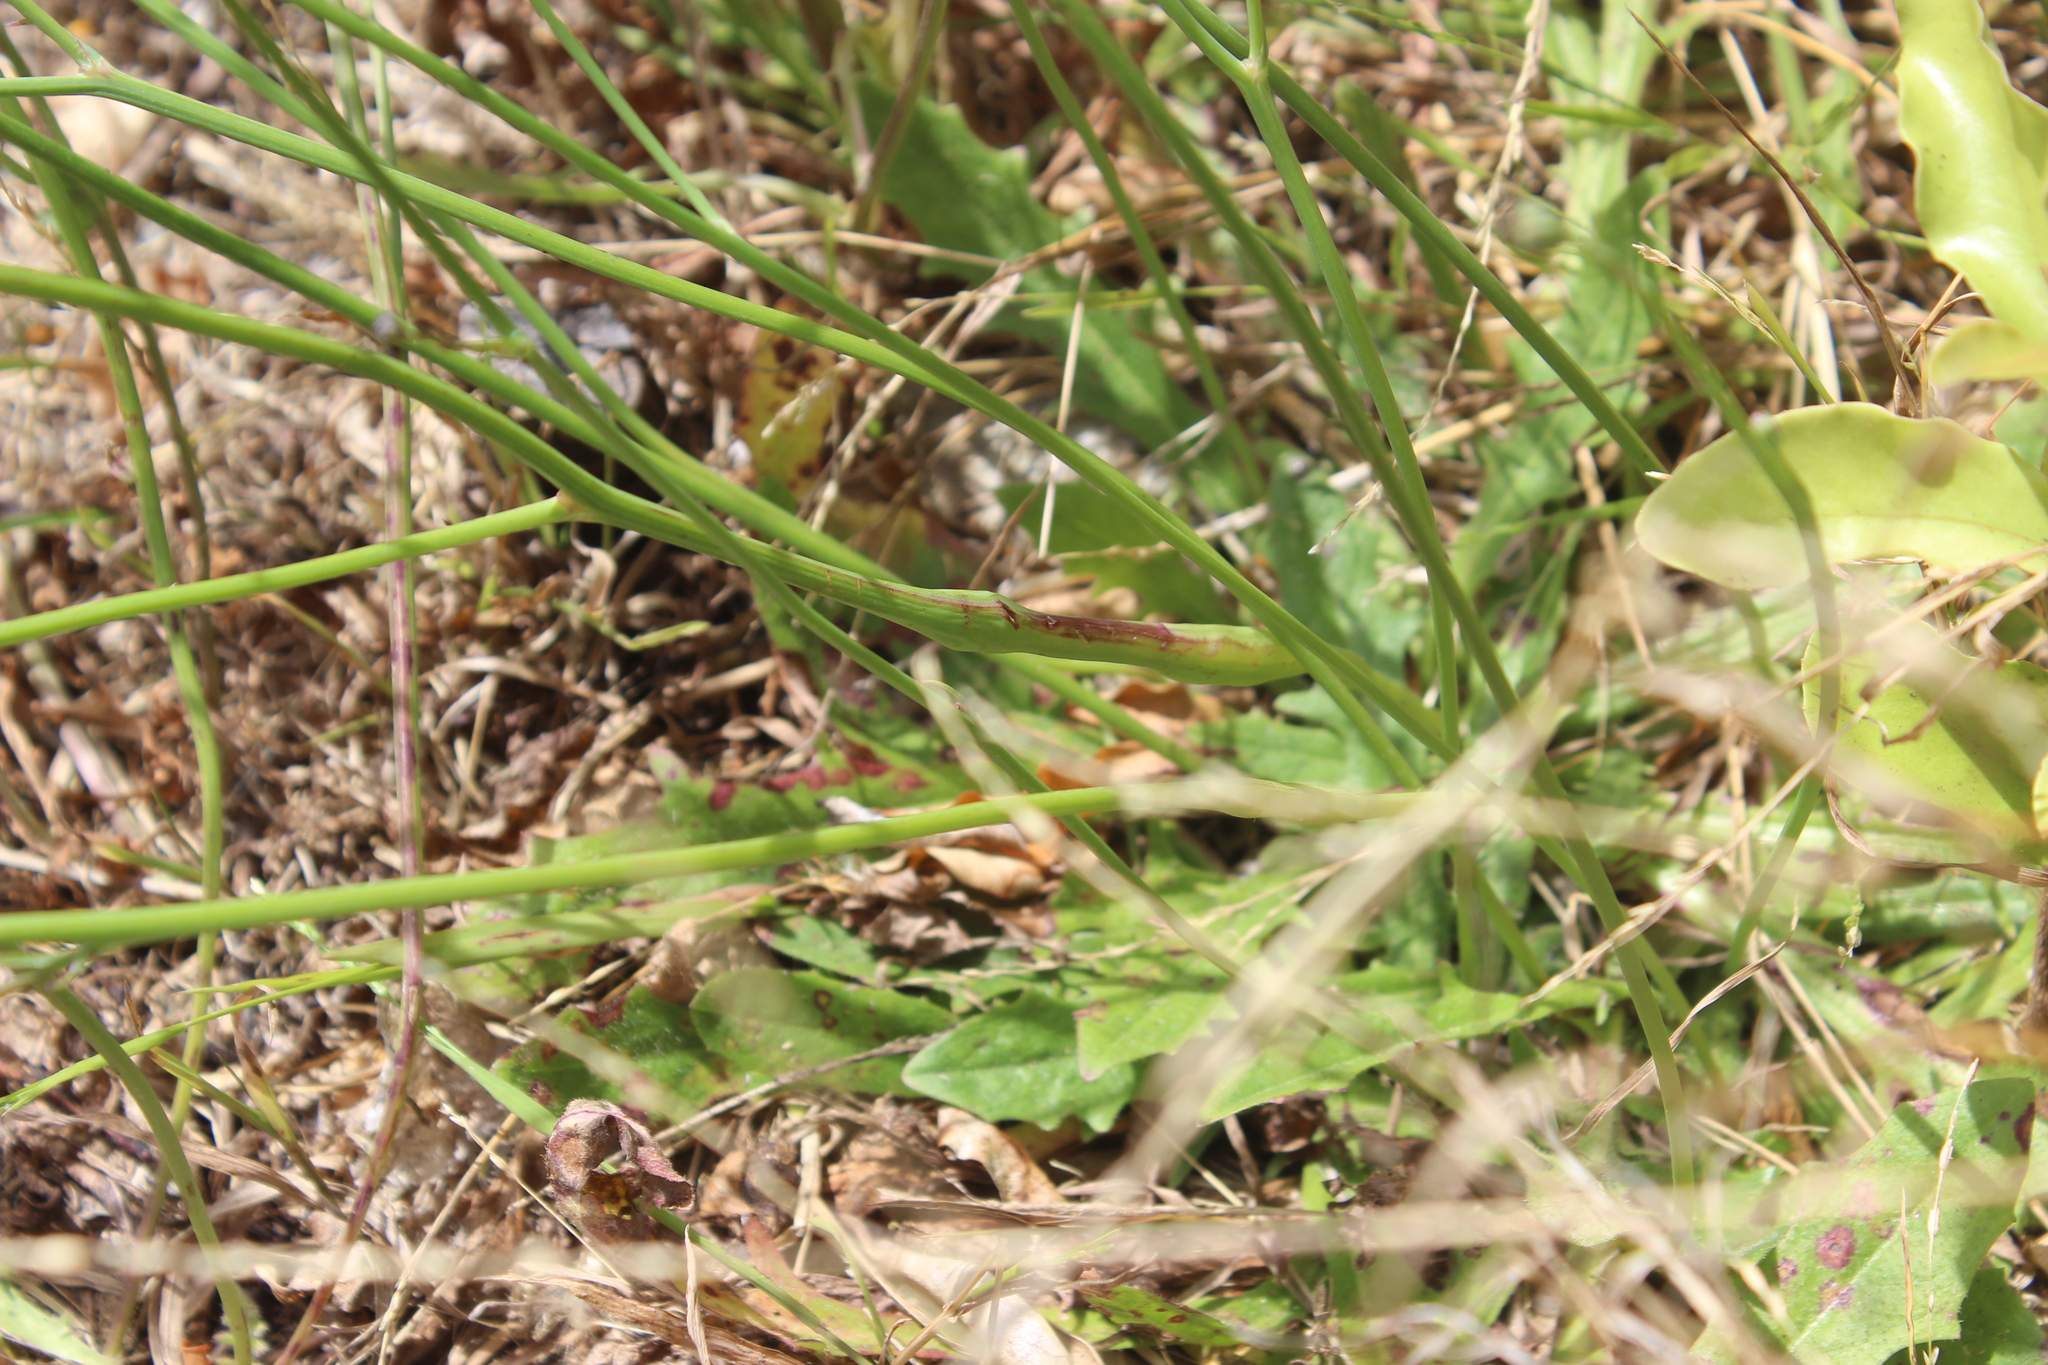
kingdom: Animalia
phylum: Arthropoda
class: Insecta
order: Hymenoptera
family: Cynipidae
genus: Phanacis
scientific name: Phanacis hypochoeridis
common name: Gall wasp
